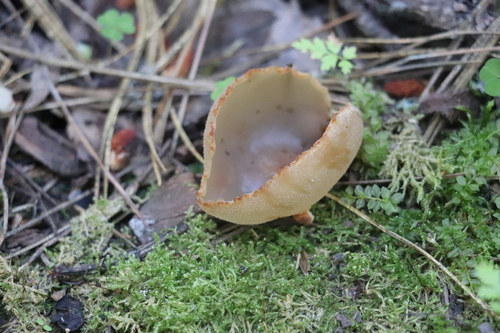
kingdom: Fungi
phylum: Ascomycota
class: Pezizomycetes
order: Pezizales
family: Pezizaceae
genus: Peziza
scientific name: Peziza varia
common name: Layered cup
